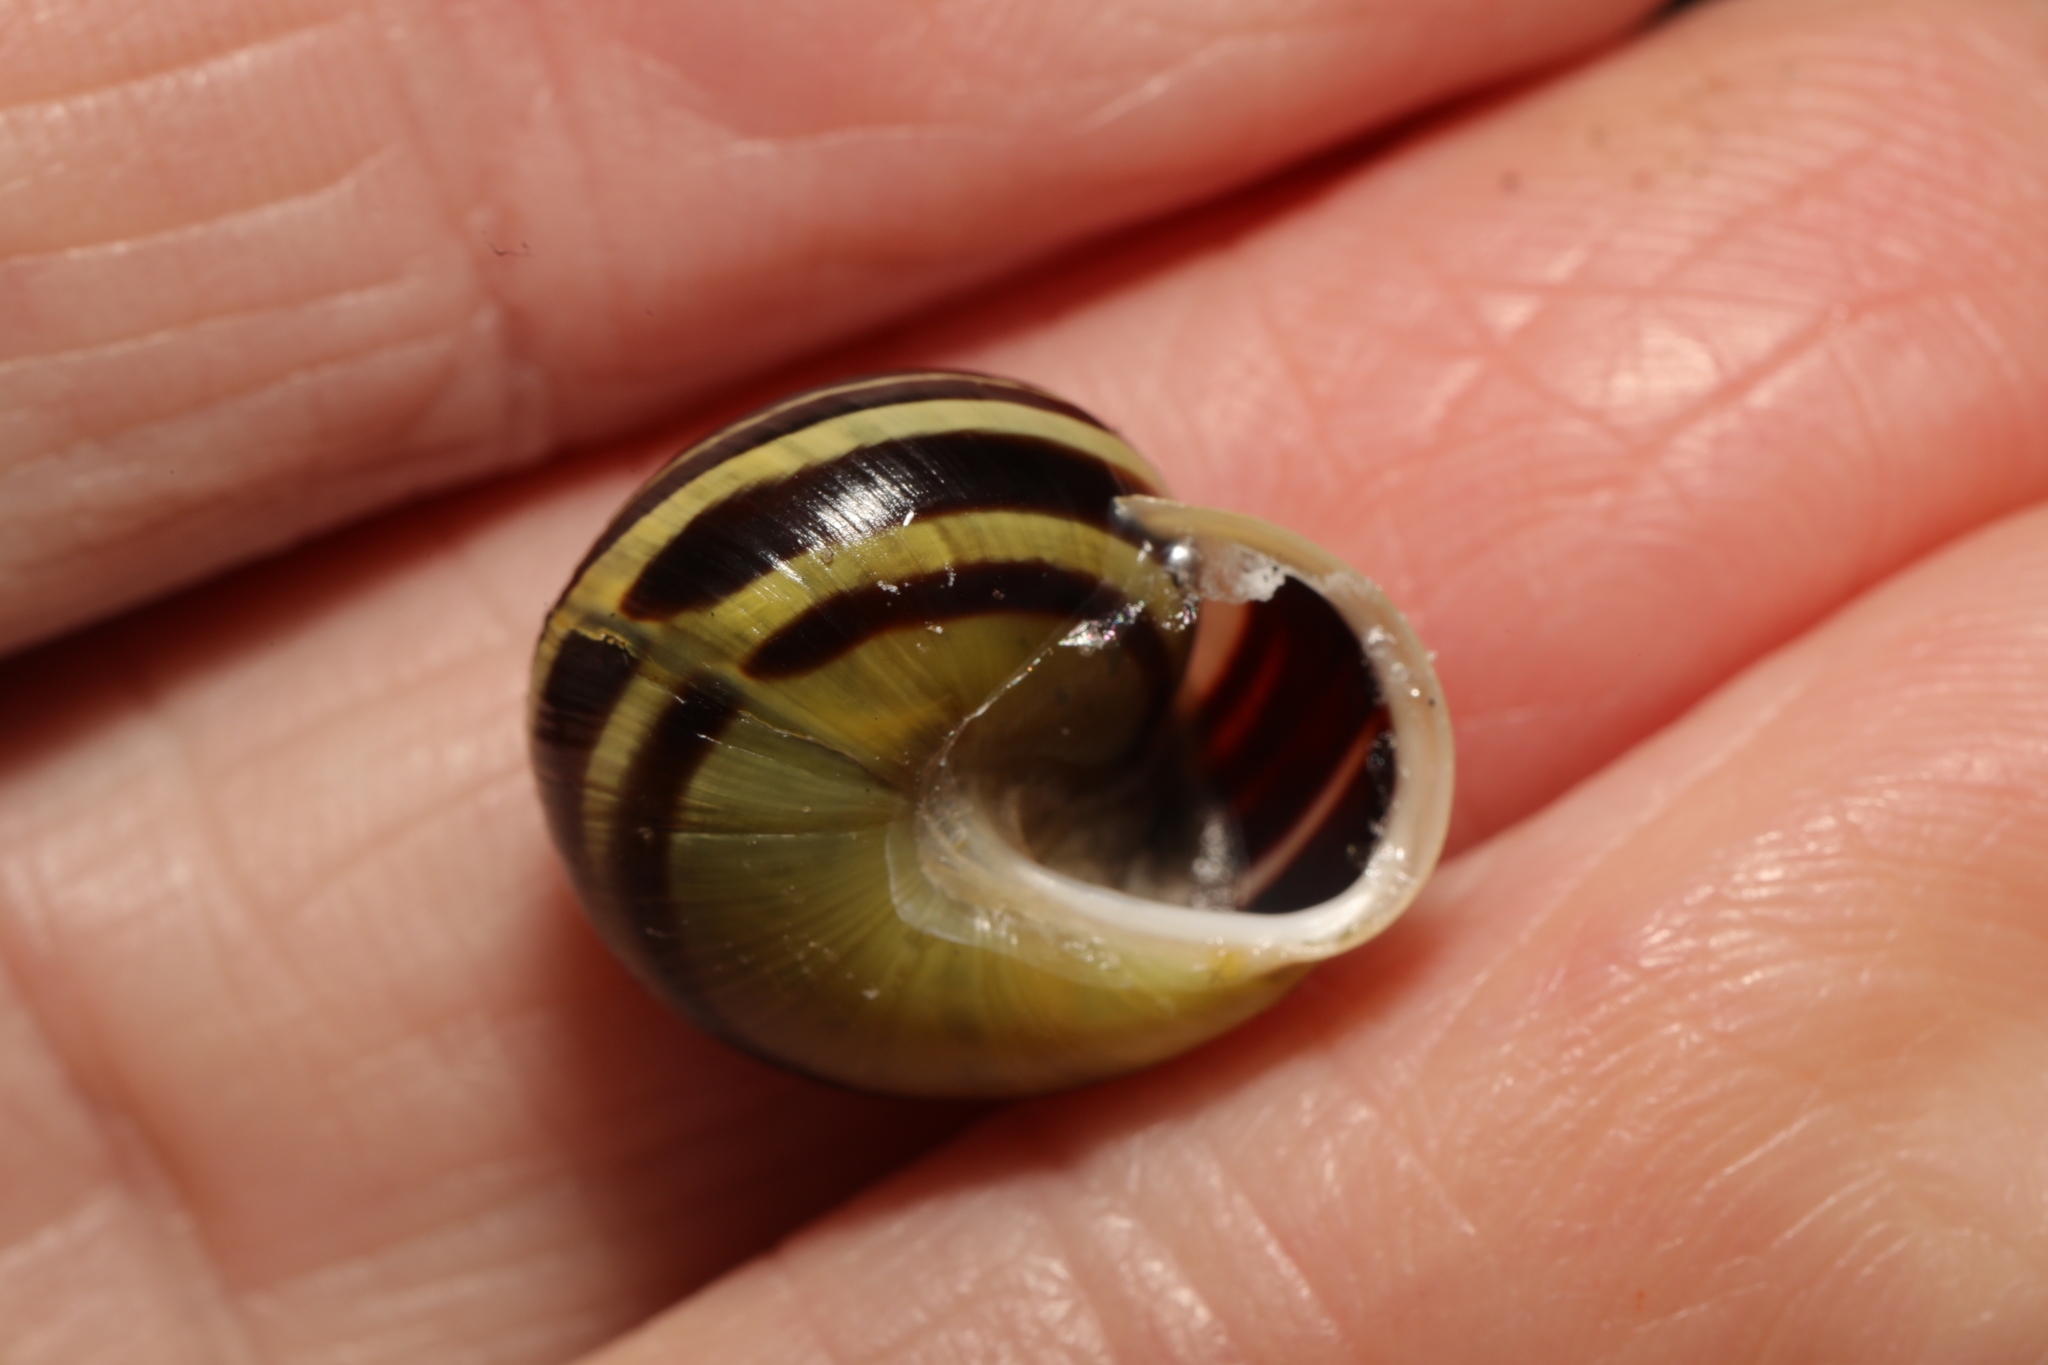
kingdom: Animalia
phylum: Mollusca
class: Gastropoda
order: Stylommatophora
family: Helicidae
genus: Cepaea
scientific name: Cepaea hortensis
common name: White-lip gardensnail
